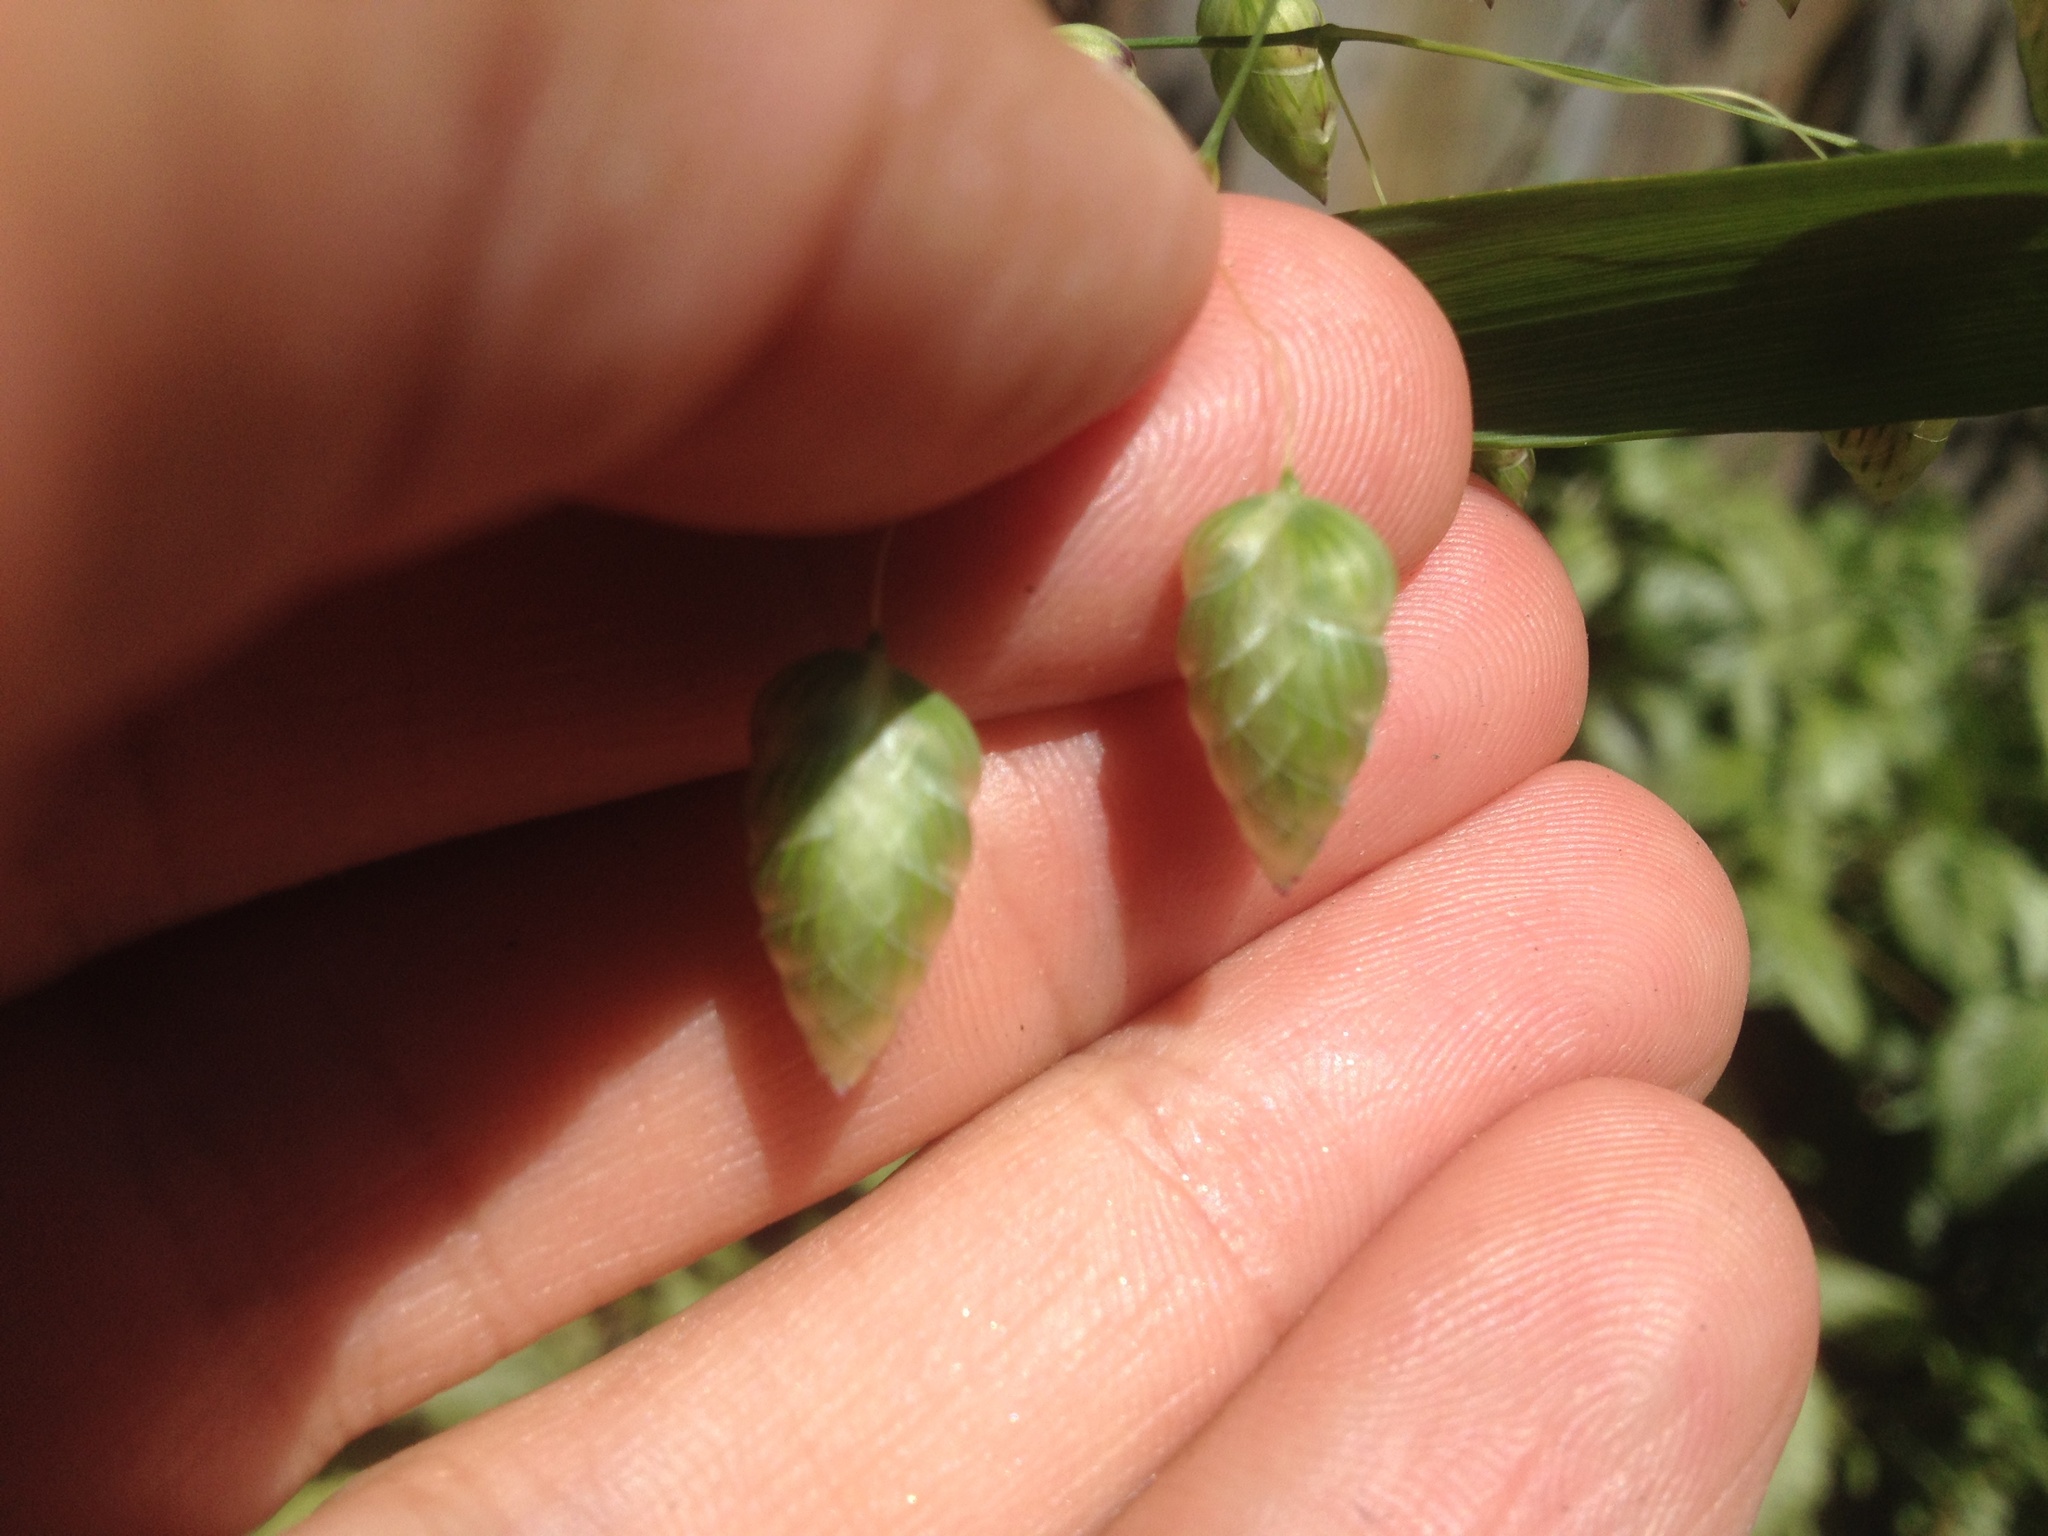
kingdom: Plantae
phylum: Tracheophyta
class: Liliopsida
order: Poales
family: Poaceae
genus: Briza
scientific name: Briza maxima
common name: Big quakinggrass
